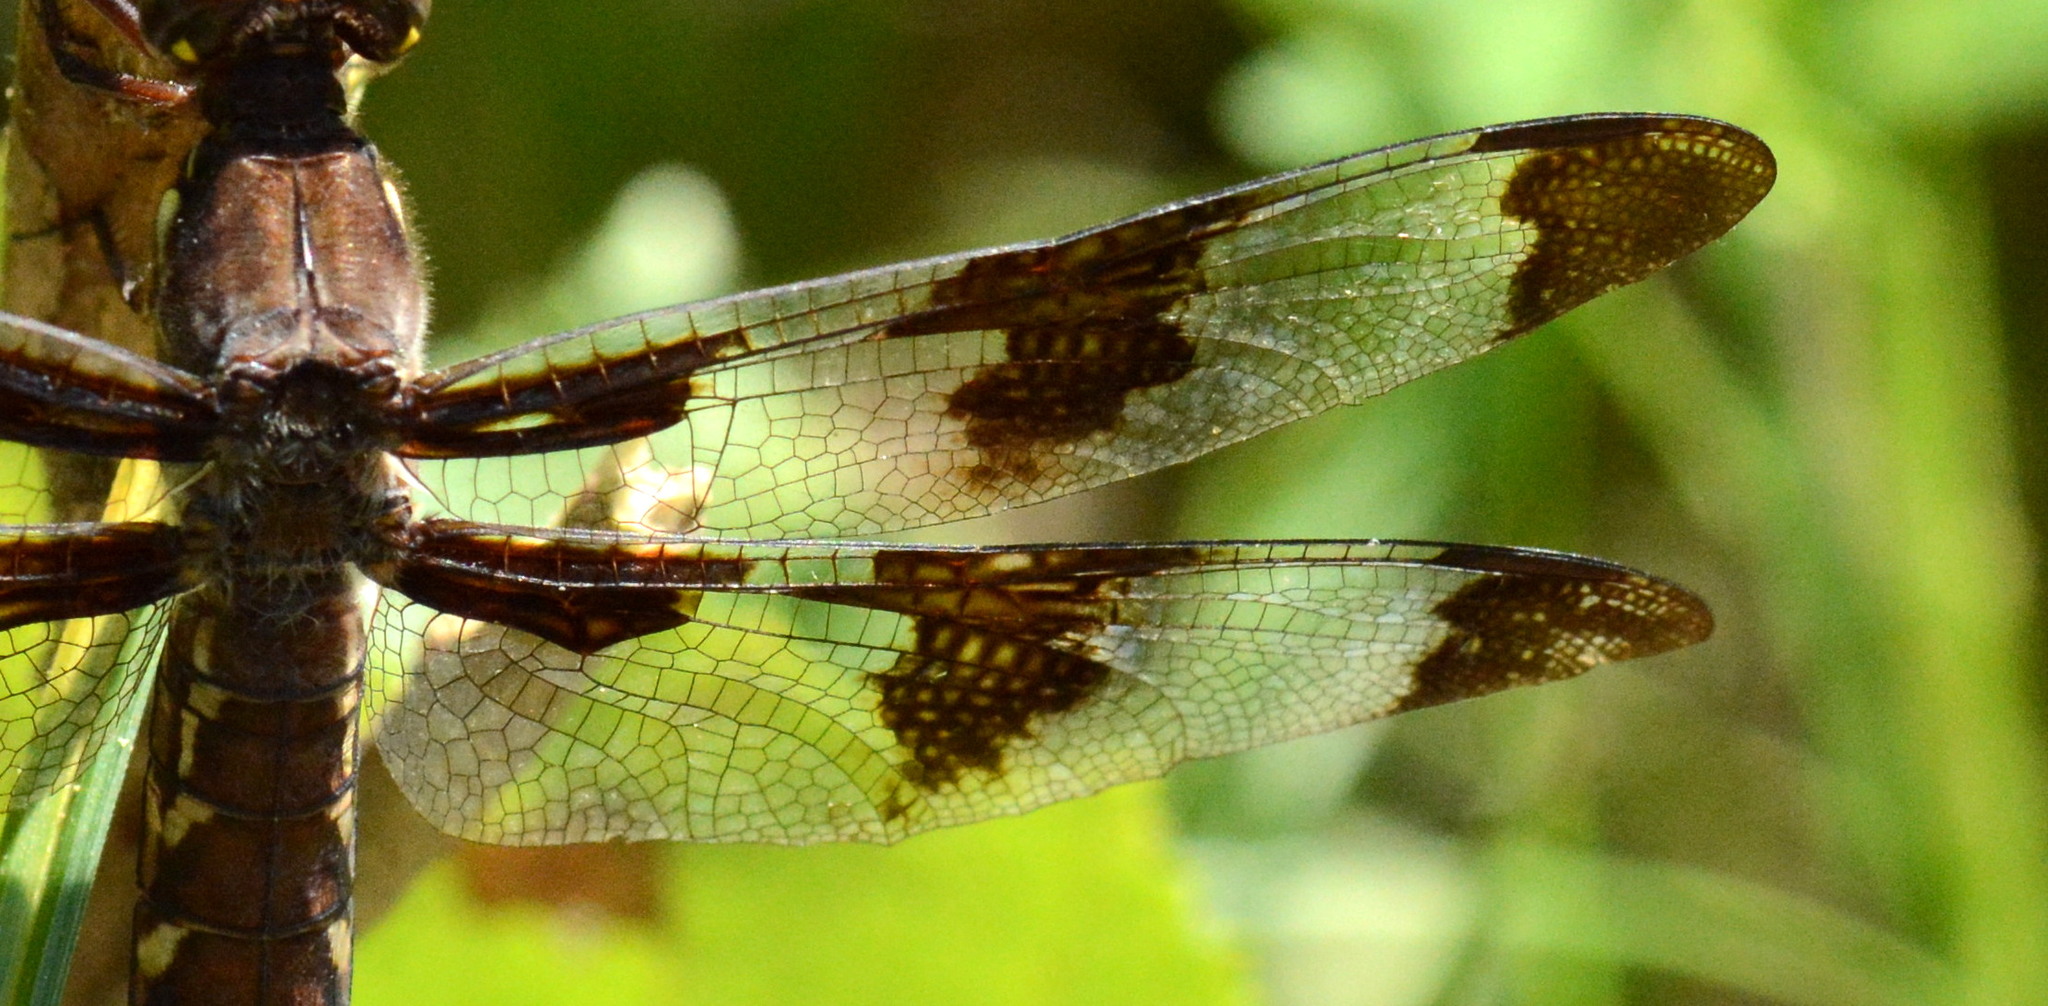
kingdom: Animalia
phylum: Arthropoda
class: Insecta
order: Odonata
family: Libellulidae
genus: Plathemis
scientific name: Plathemis lydia
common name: Common whitetail
